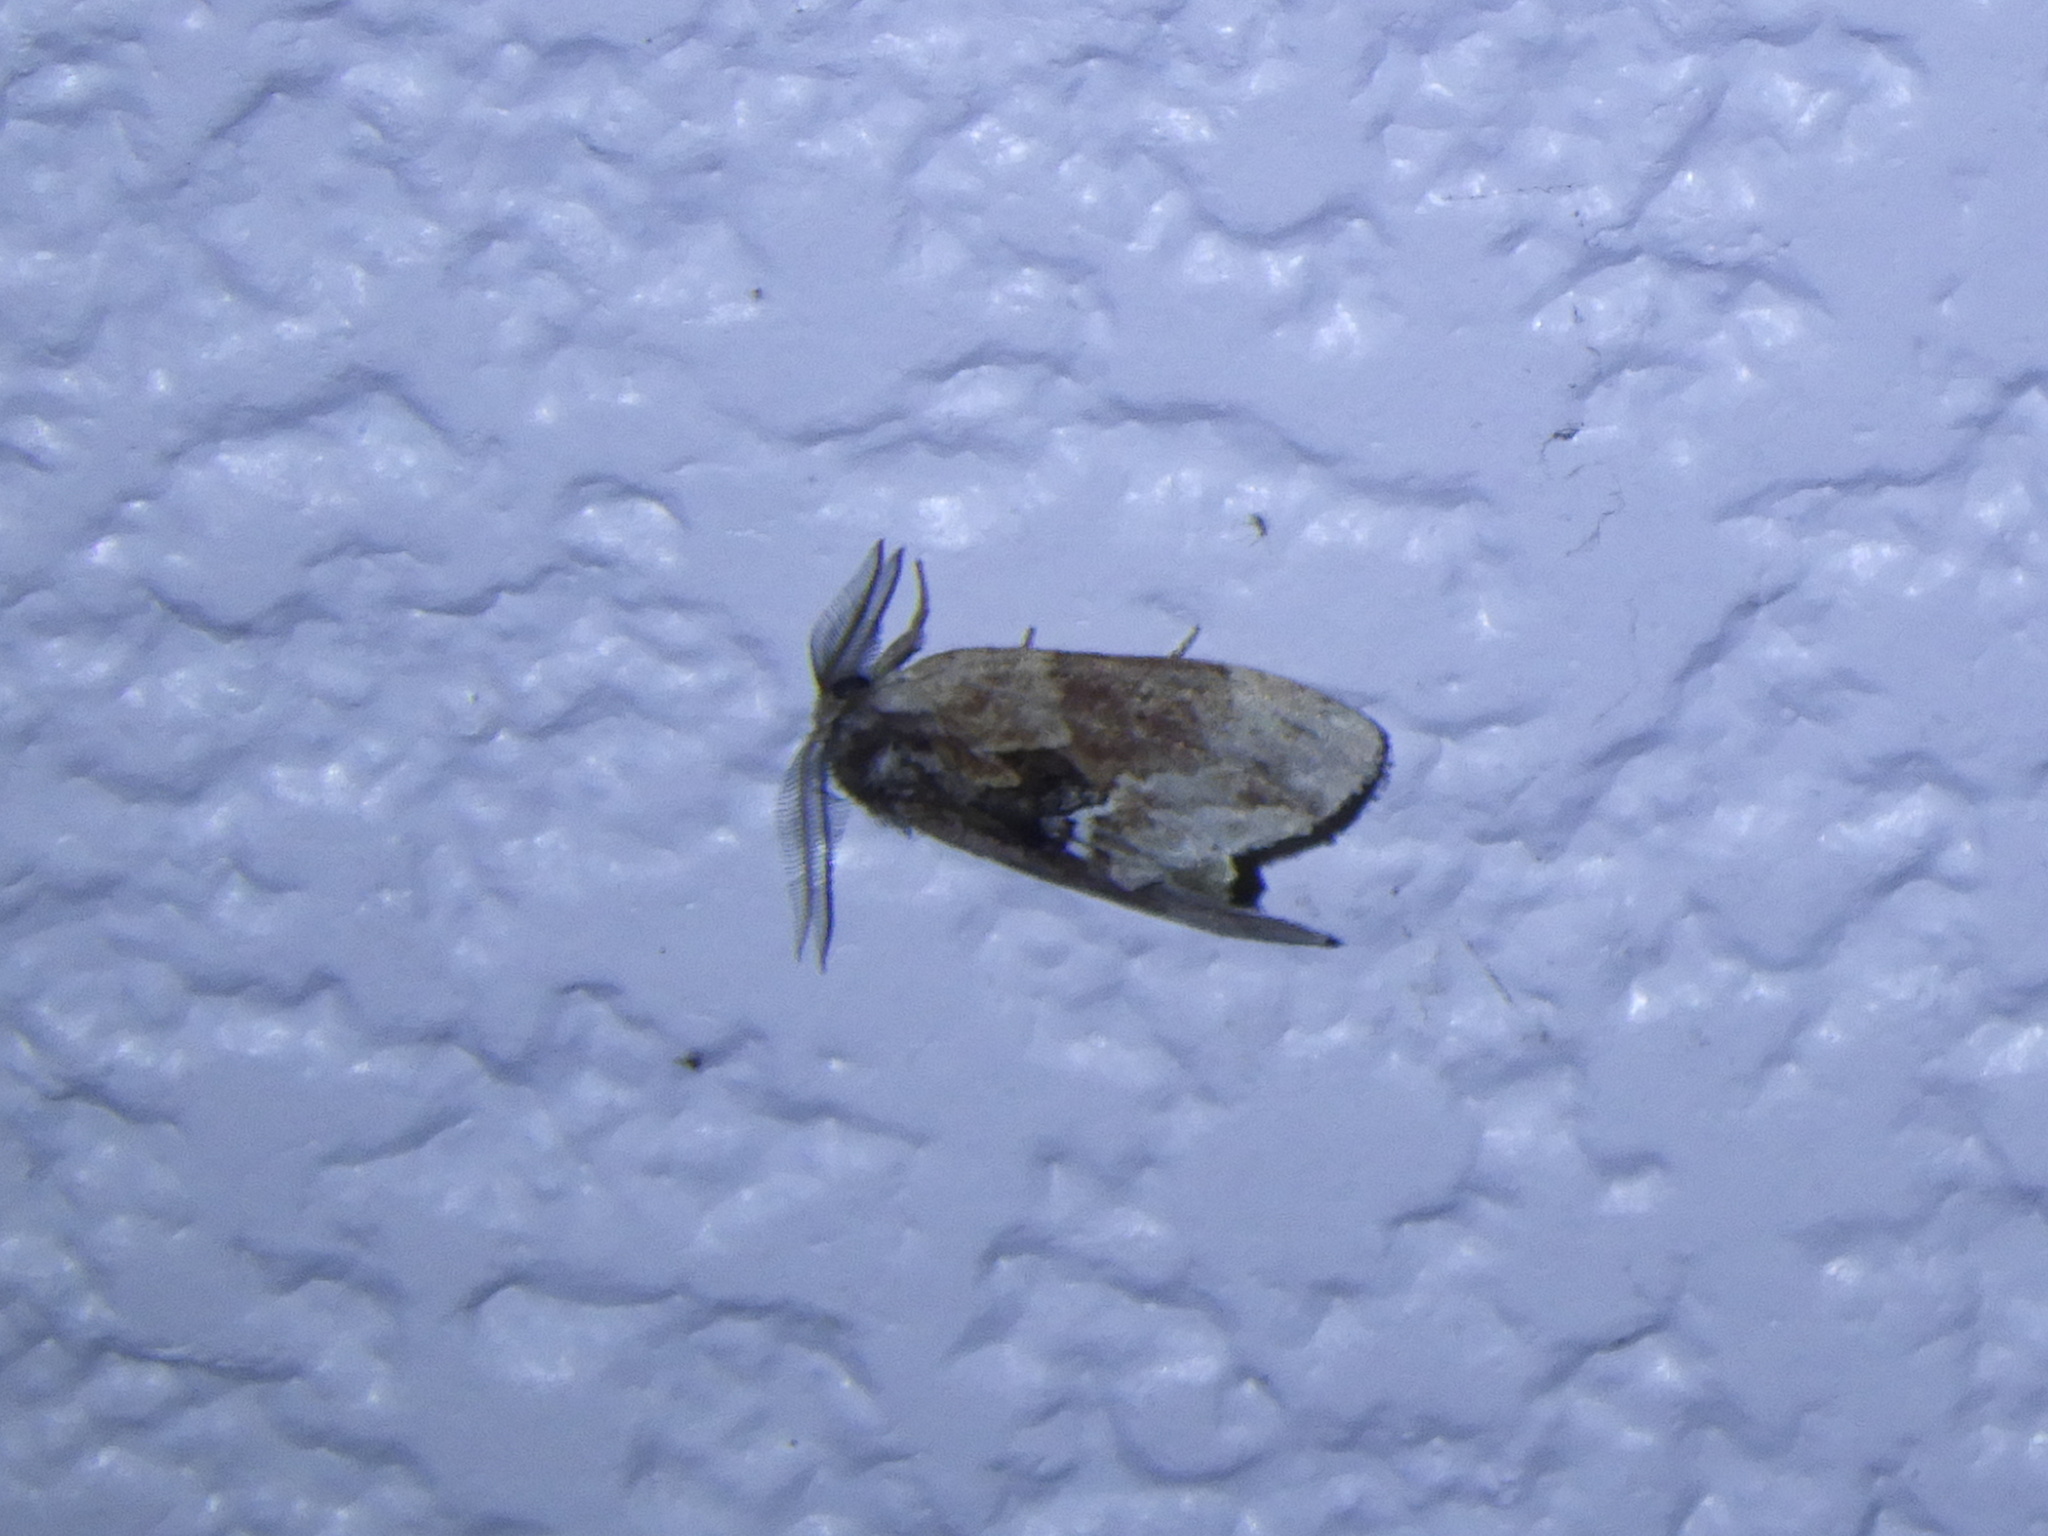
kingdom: Animalia
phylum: Arthropoda
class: Insecta
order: Lepidoptera
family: Notodontidae
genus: Lophontosia
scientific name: Lophontosia
